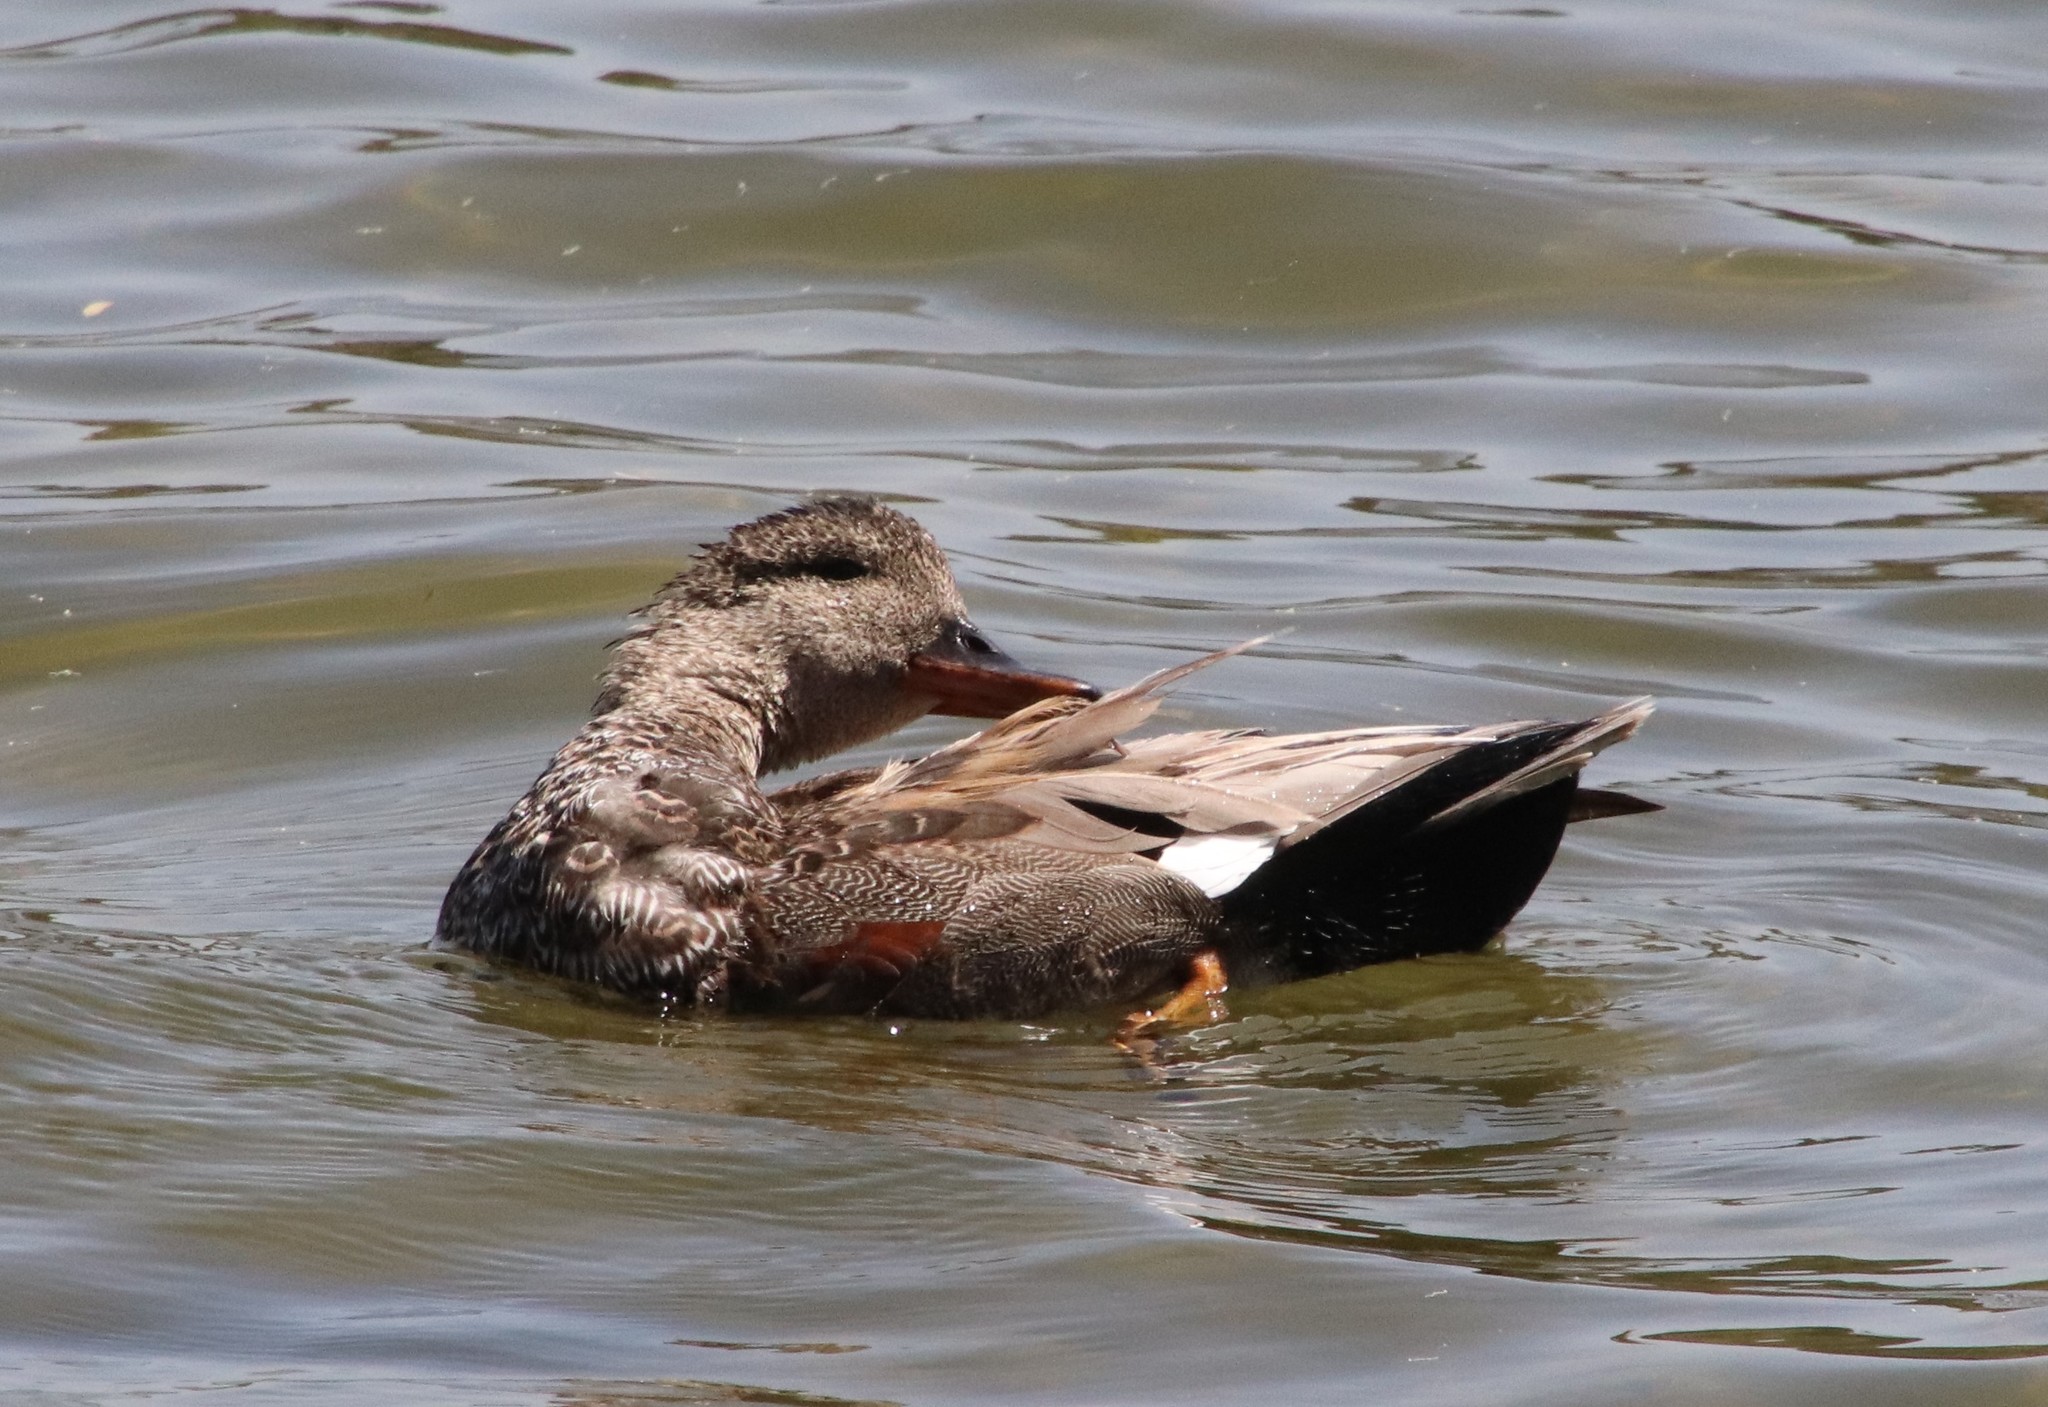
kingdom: Animalia
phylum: Chordata
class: Aves
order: Anseriformes
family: Anatidae
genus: Mareca
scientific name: Mareca strepera
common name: Gadwall
